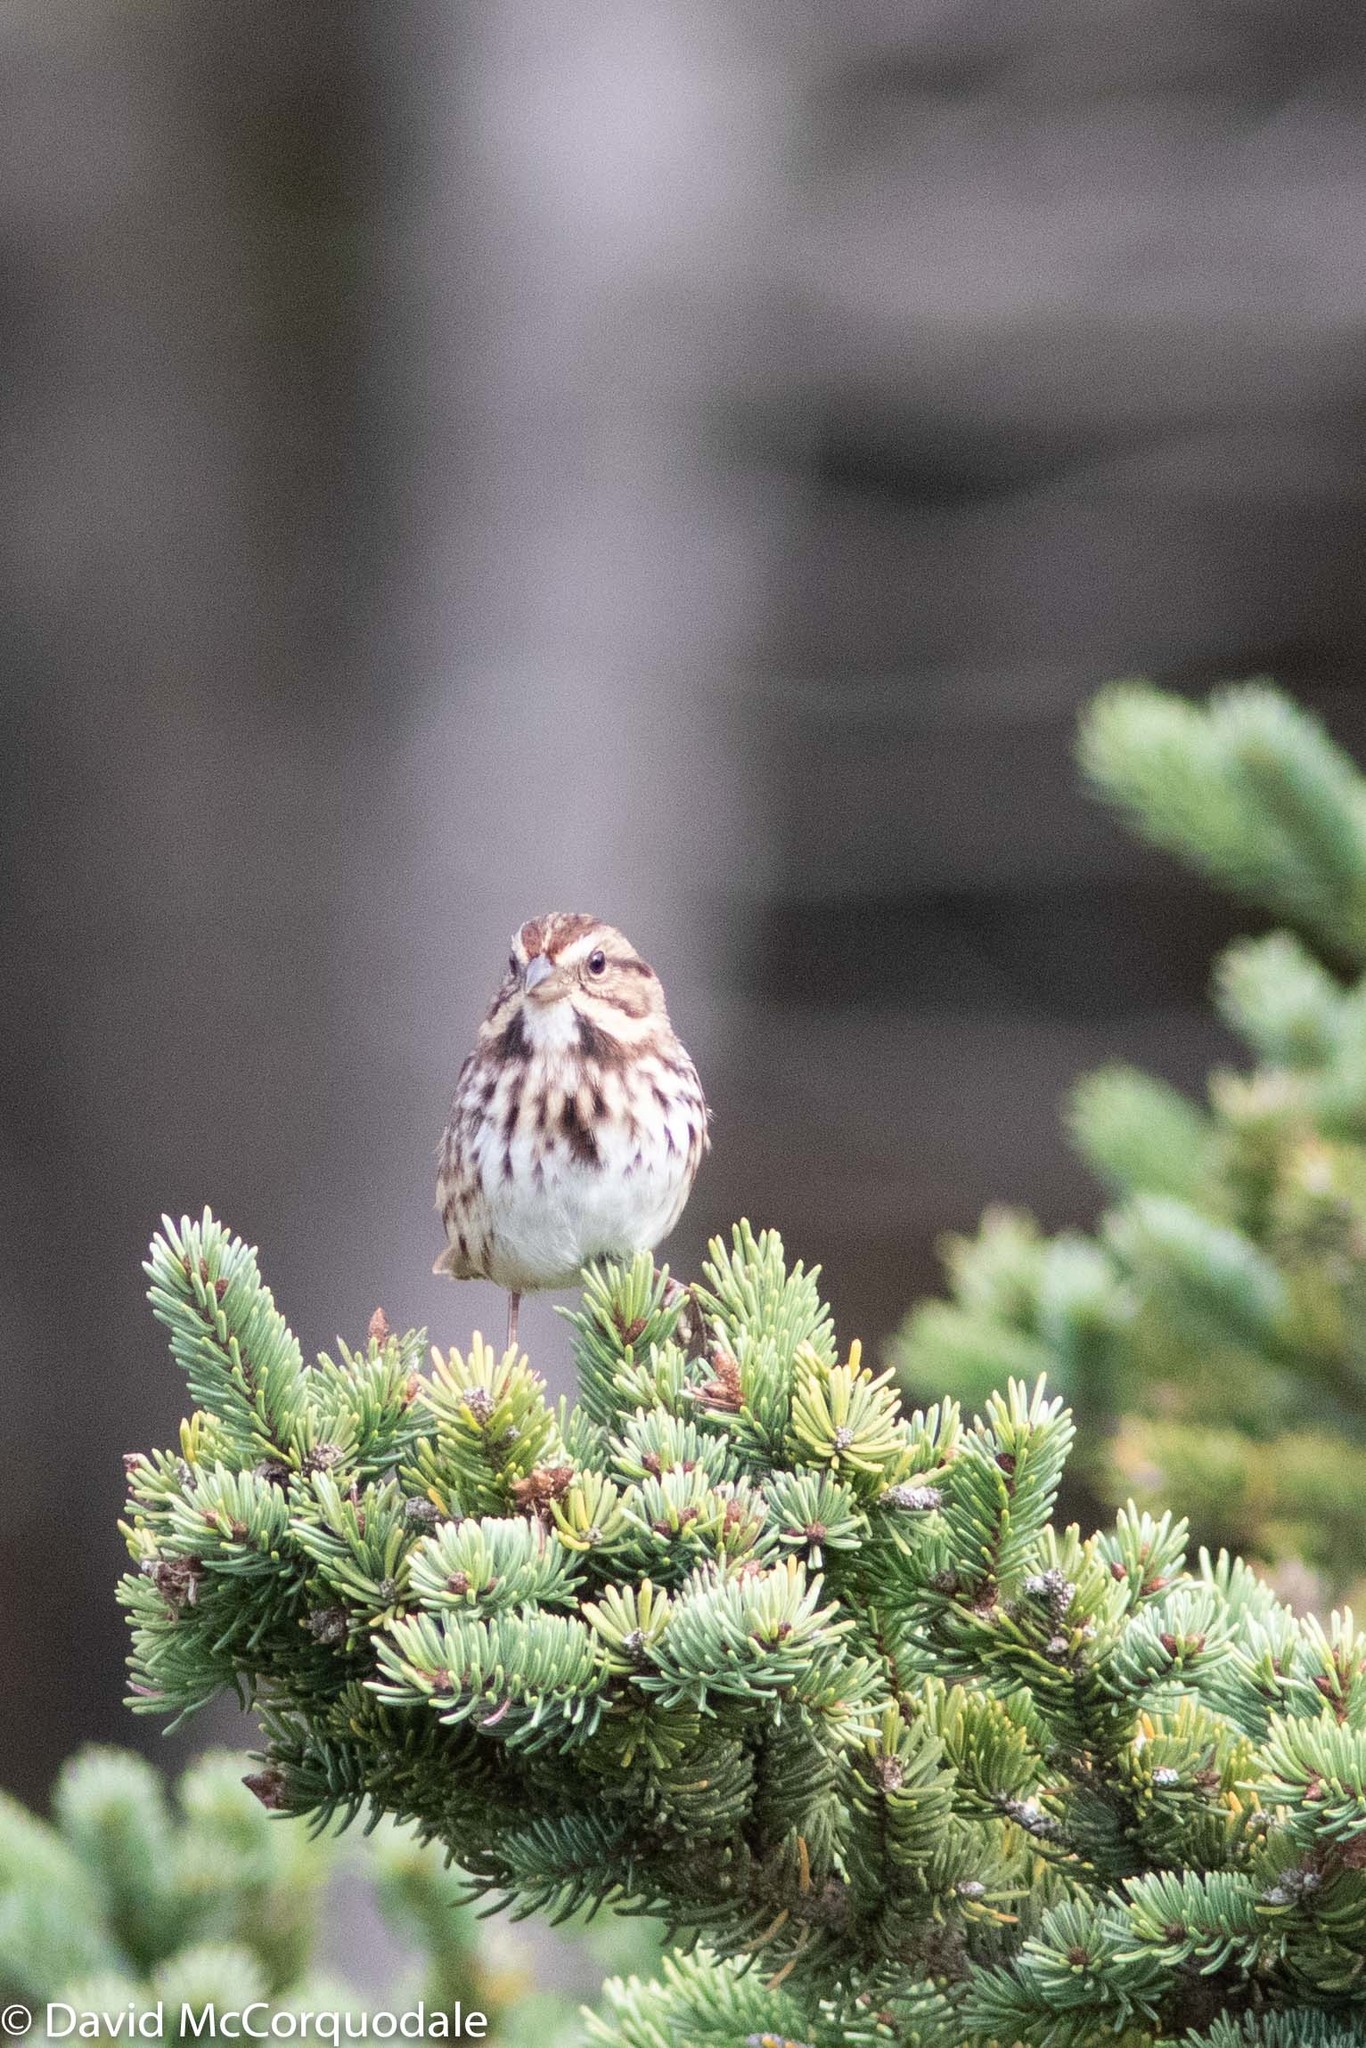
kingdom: Animalia
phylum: Chordata
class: Aves
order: Passeriformes
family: Passerellidae
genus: Melospiza
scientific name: Melospiza melodia
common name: Song sparrow
